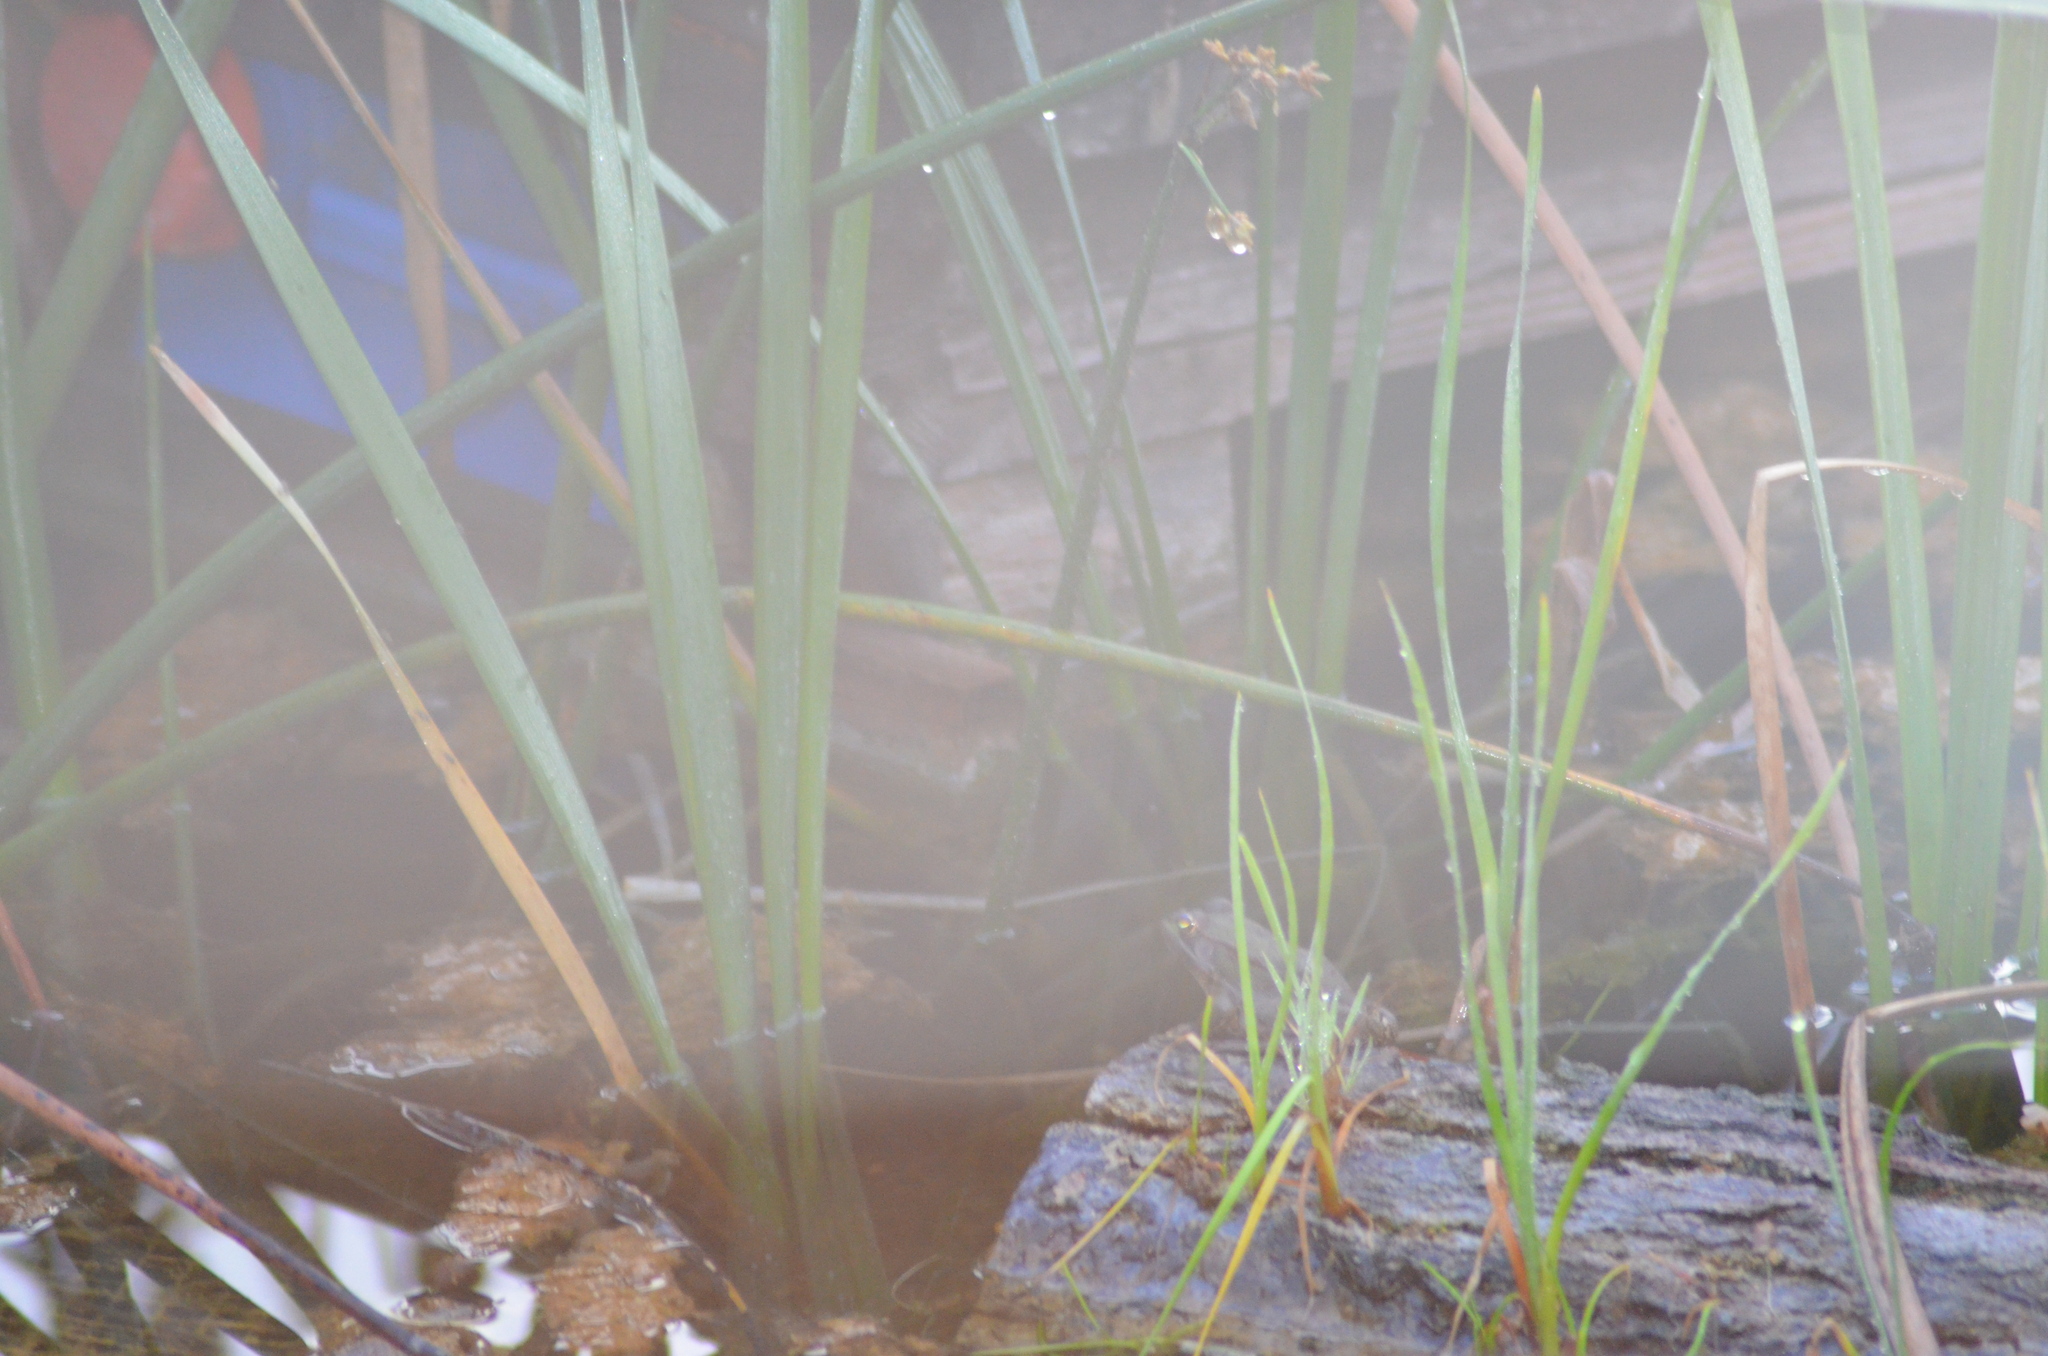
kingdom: Animalia
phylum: Chordata
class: Amphibia
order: Anura
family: Ranidae
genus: Pelophylax
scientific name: Pelophylax
